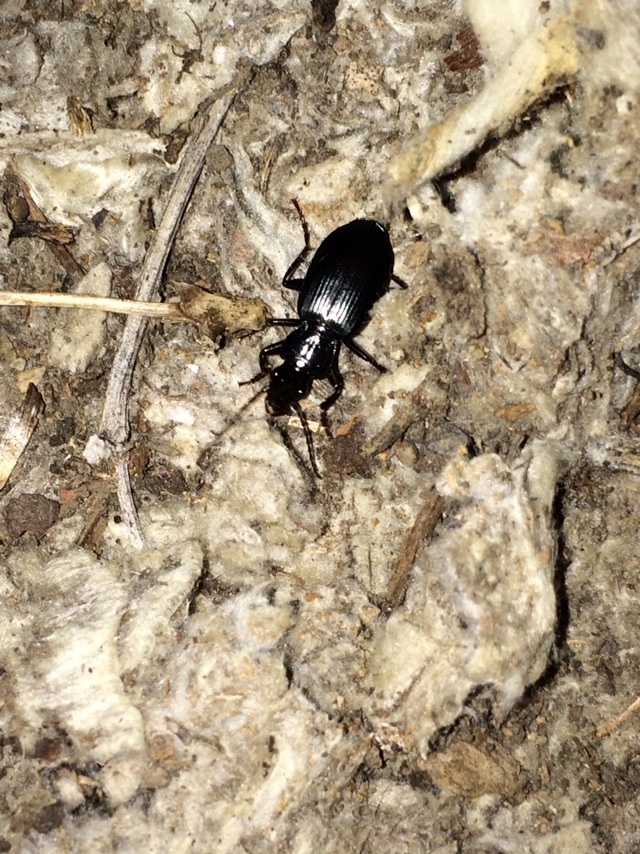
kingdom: Animalia
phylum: Arthropoda
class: Insecta
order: Coleoptera
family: Carabidae
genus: Laemostenus
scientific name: Laemostenus complanatus
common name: Cosmopolitan ground beetle
